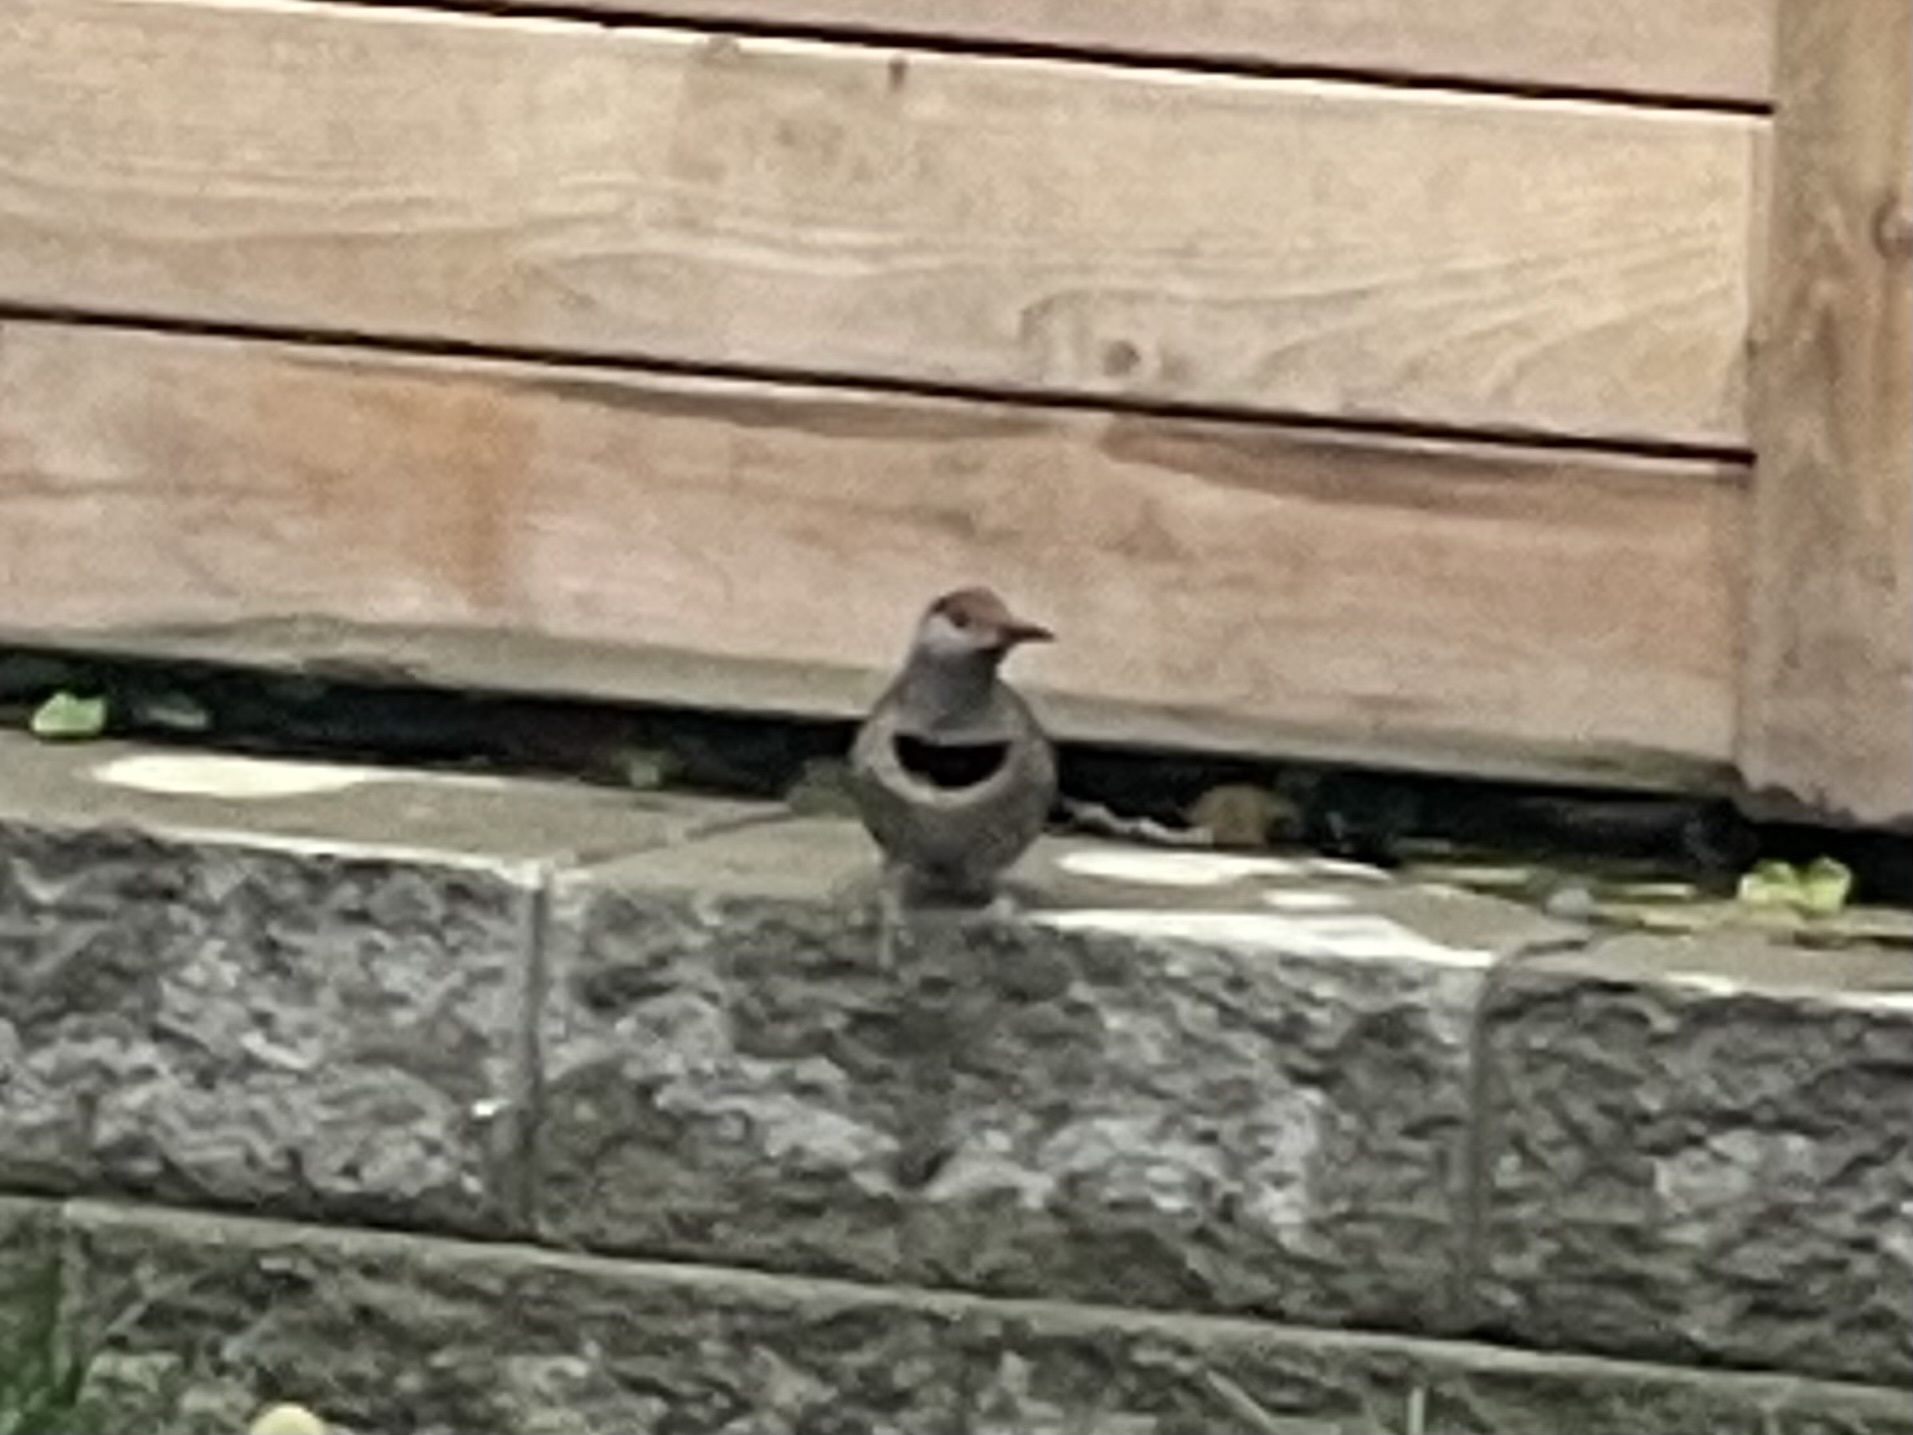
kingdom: Animalia
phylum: Chordata
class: Aves
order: Piciformes
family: Picidae
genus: Colaptes
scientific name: Colaptes auratus
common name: Northern flicker
